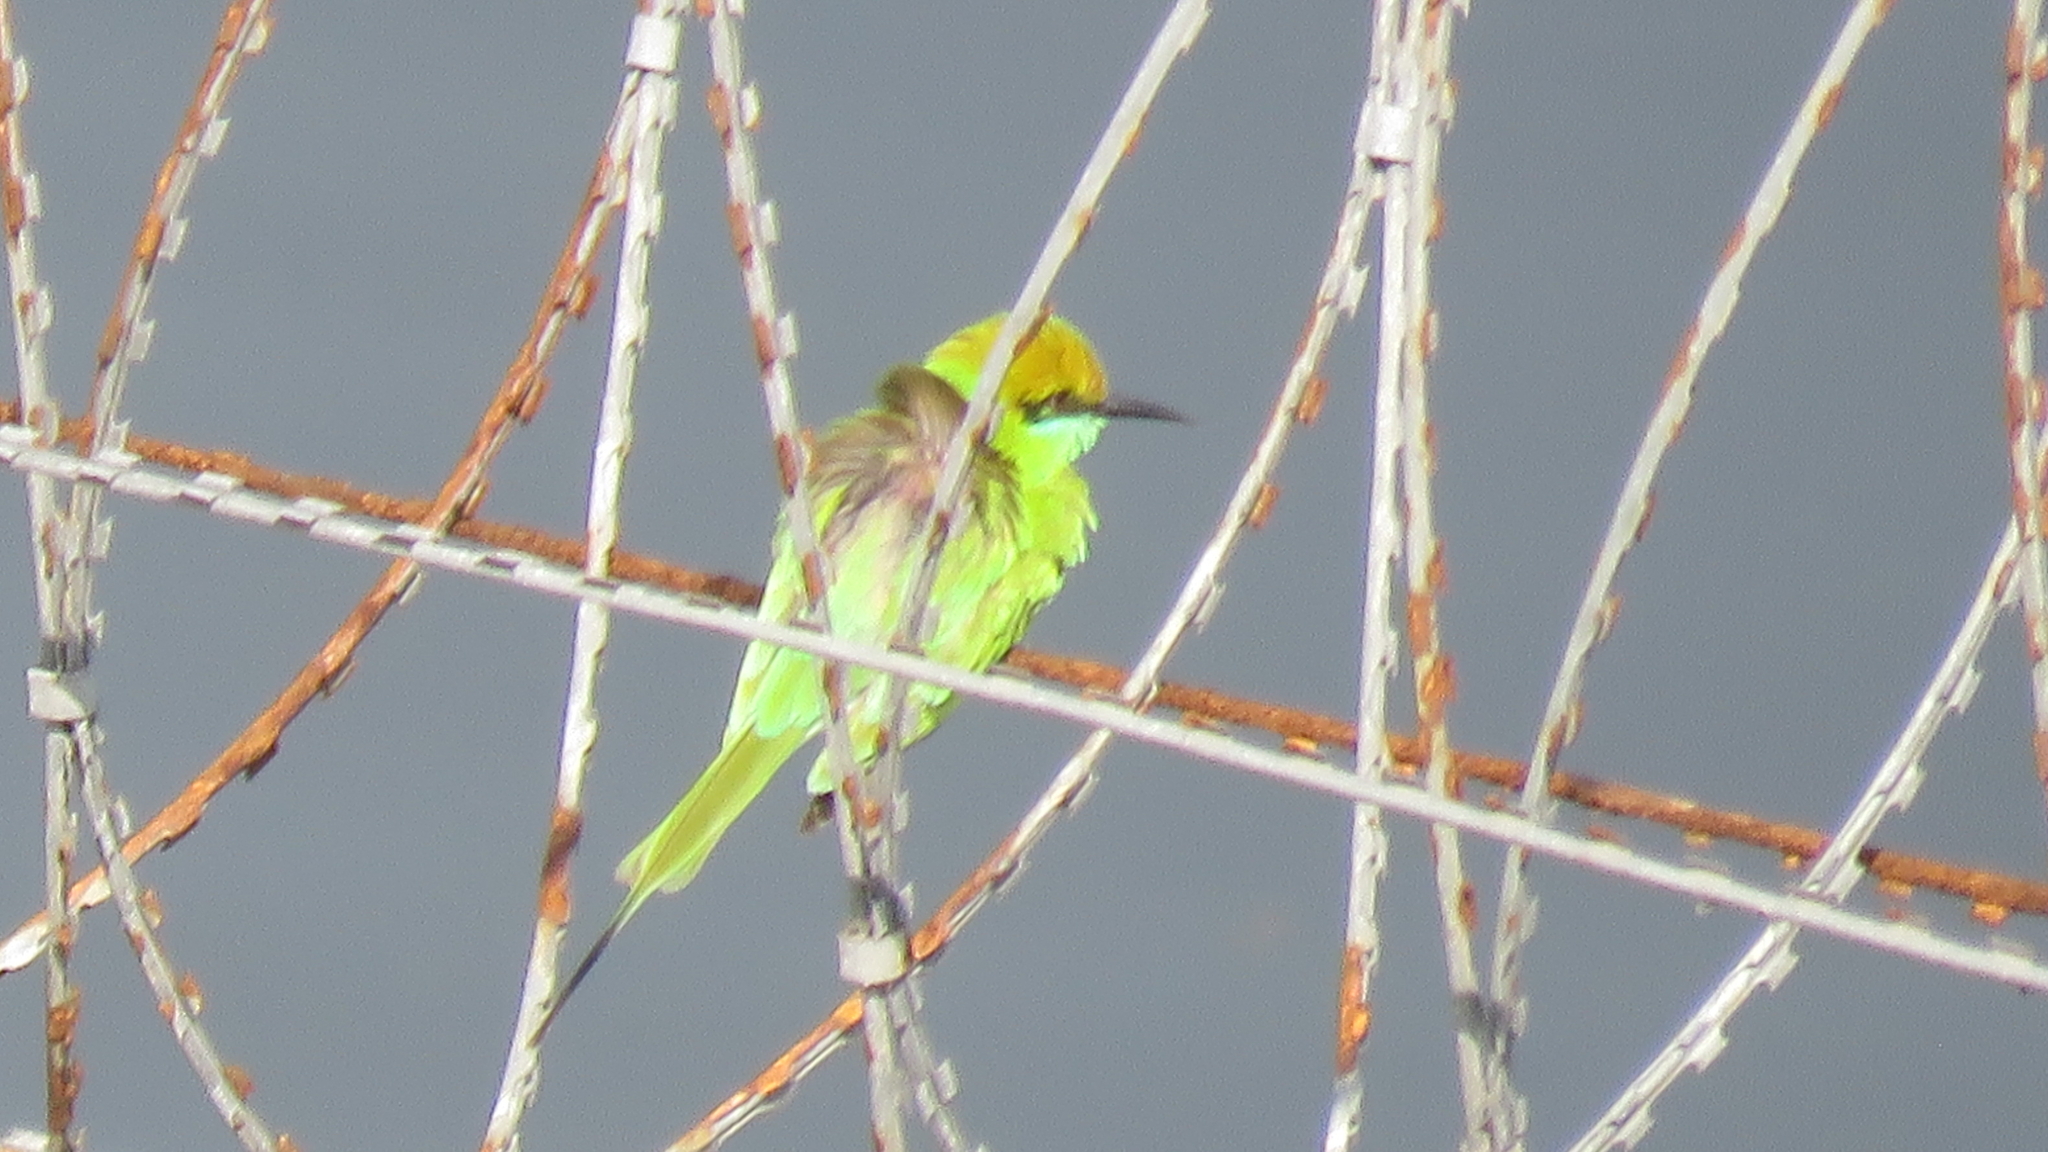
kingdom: Animalia
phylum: Chordata
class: Aves
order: Coraciiformes
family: Meropidae
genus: Merops
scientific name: Merops orientalis
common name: Green bee-eater
